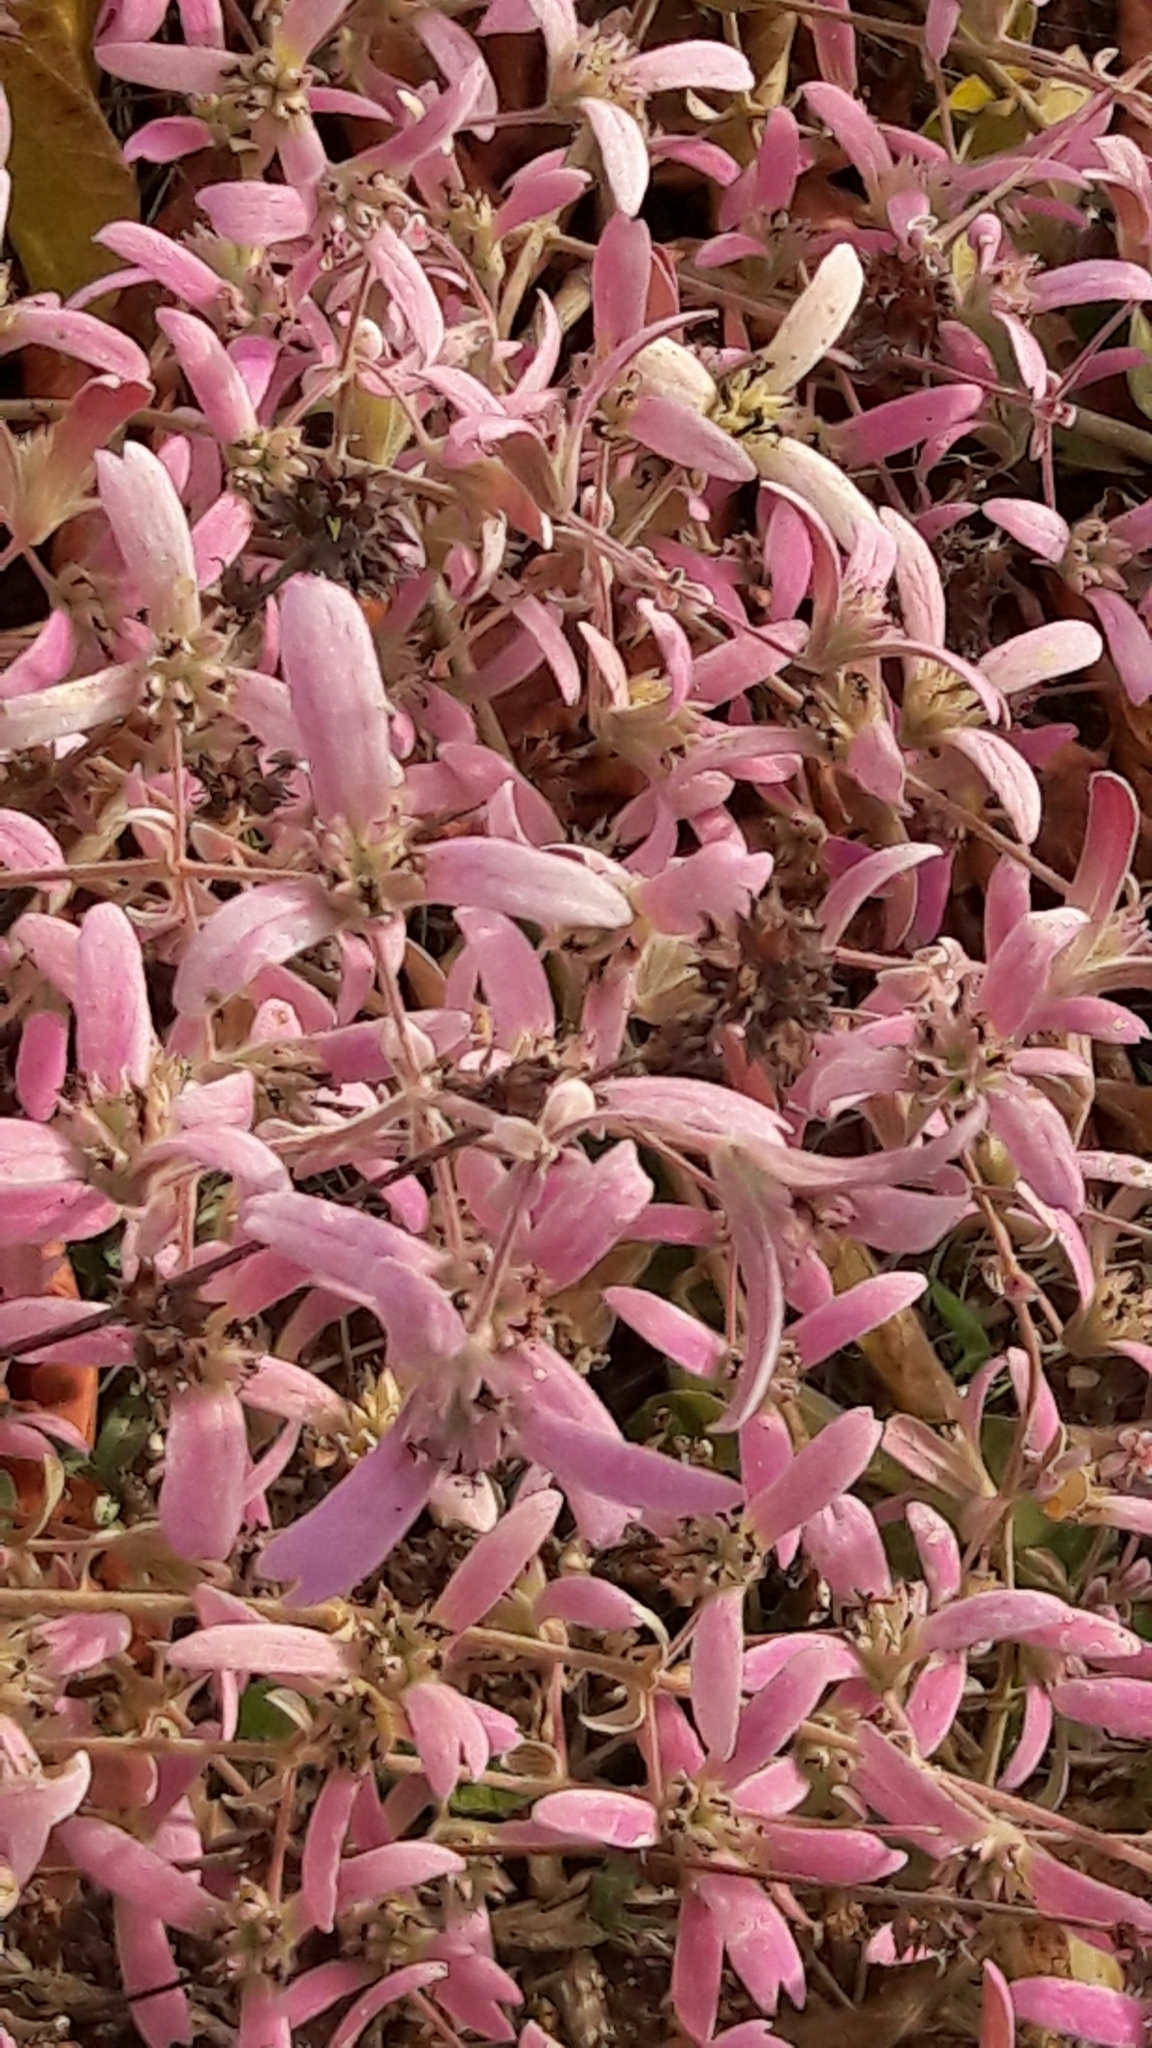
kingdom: Plantae
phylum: Tracheophyta
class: Magnoliopsida
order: Lamiales
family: Lamiaceae
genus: Congea
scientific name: Congea tomentosa
